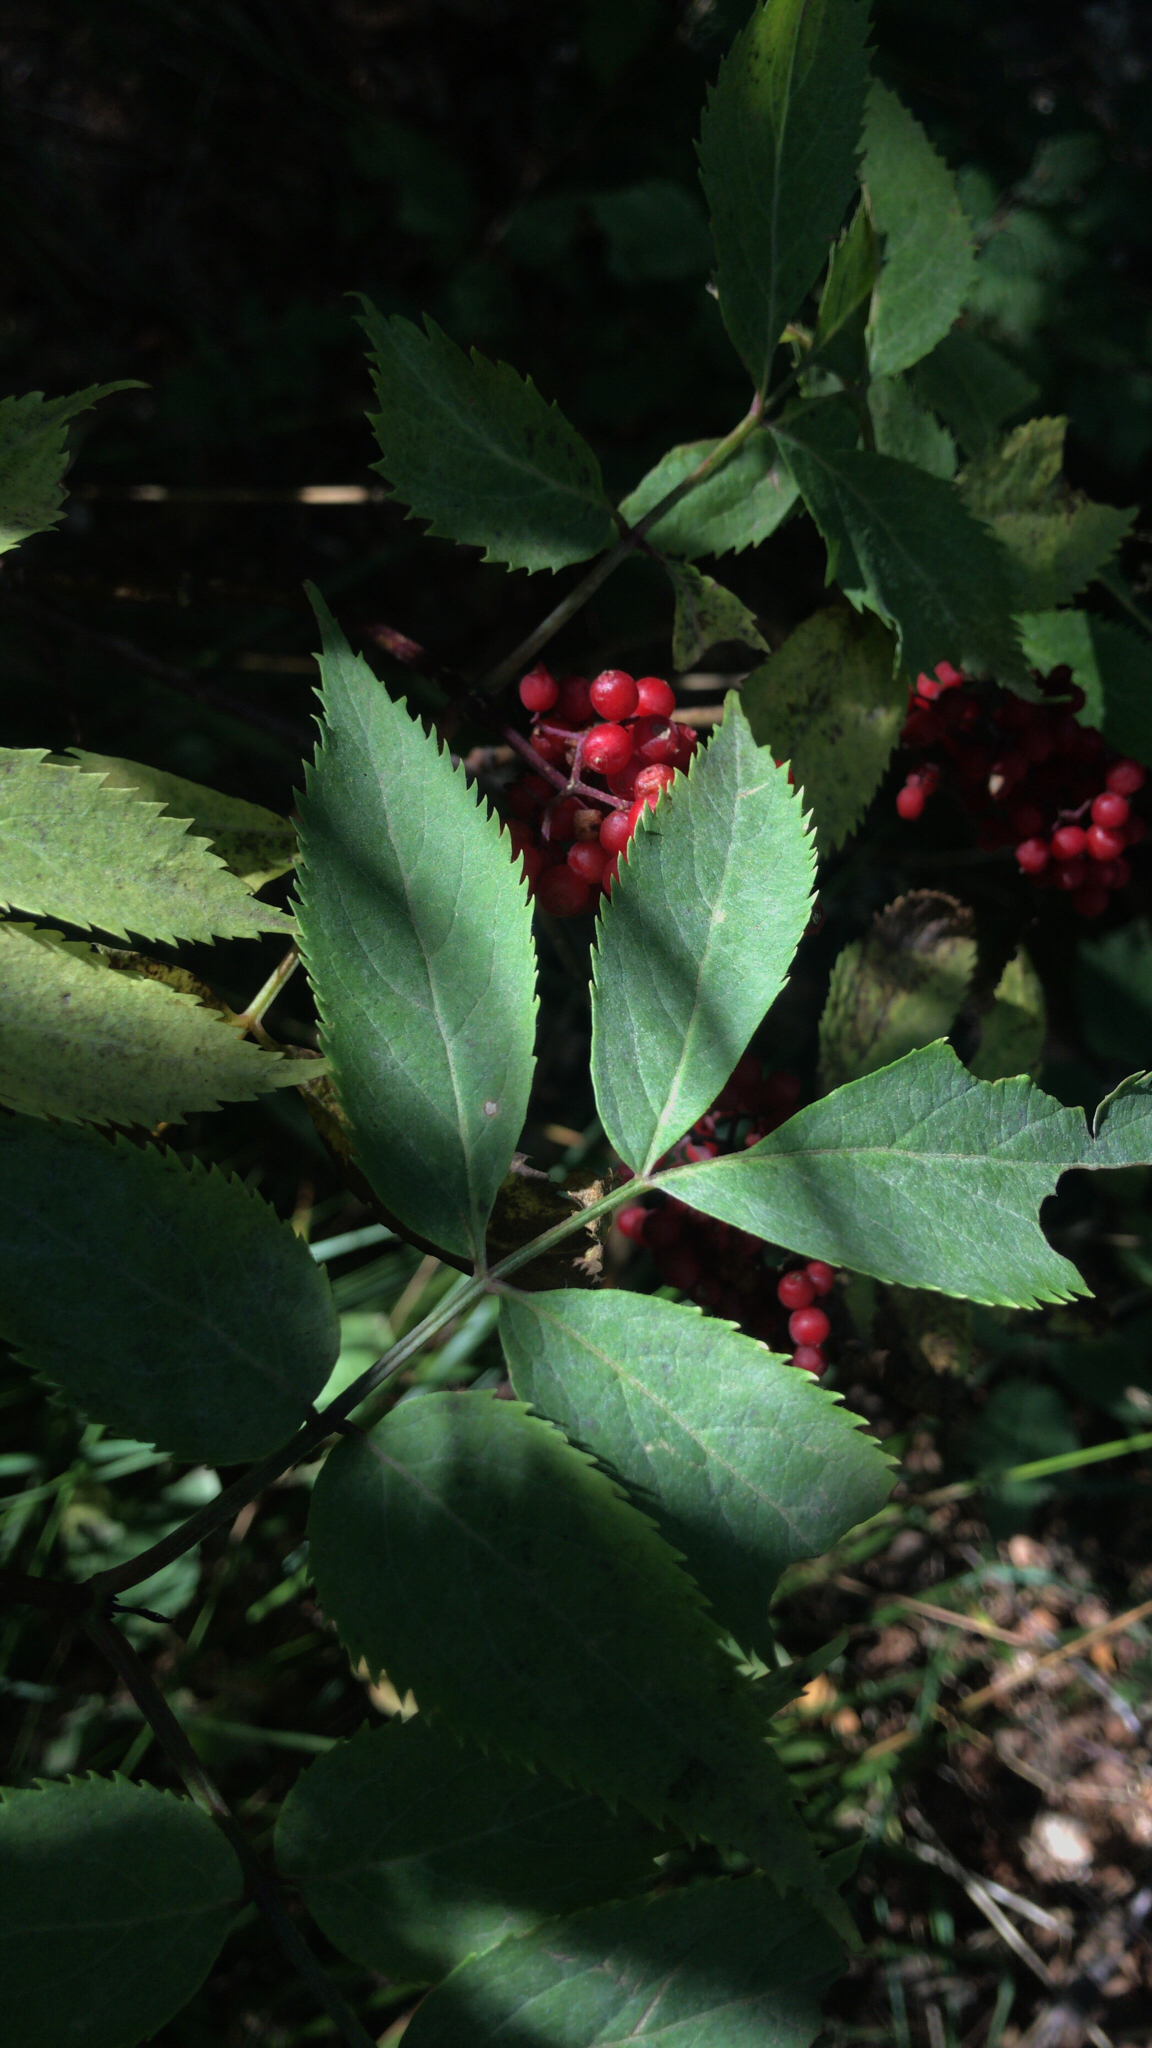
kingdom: Plantae
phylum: Tracheophyta
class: Magnoliopsida
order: Dipsacales
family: Viburnaceae
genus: Sambucus
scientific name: Sambucus racemosa
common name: Red-berried elder
